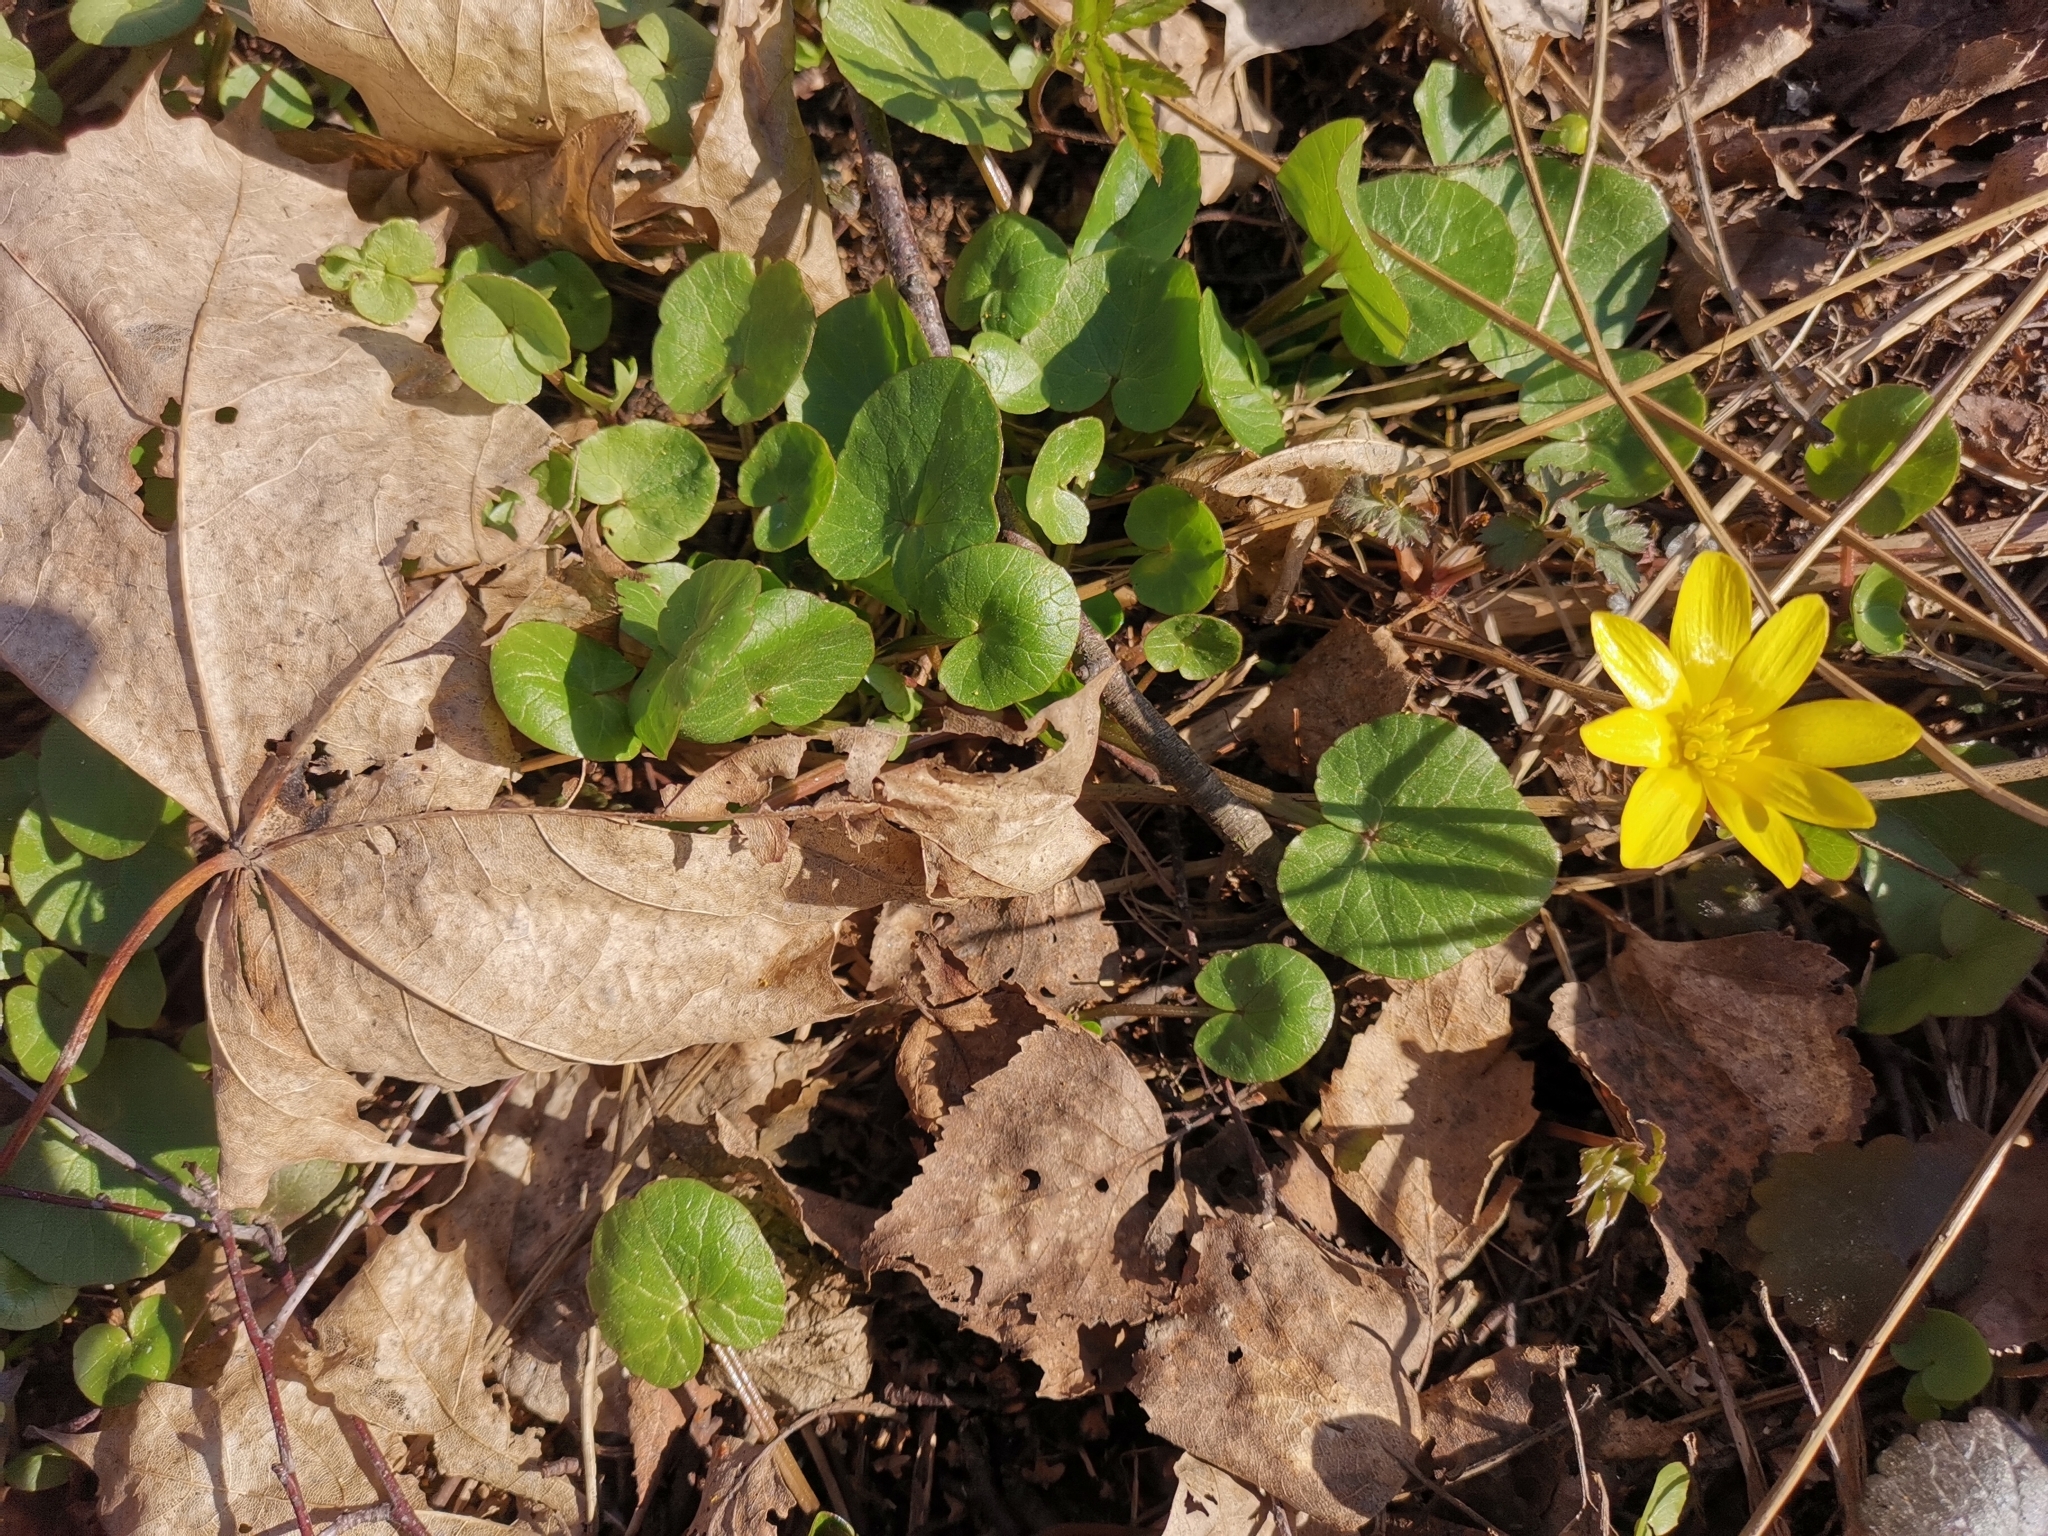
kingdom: Plantae
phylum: Tracheophyta
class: Magnoliopsida
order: Ranunculales
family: Ranunculaceae
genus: Ficaria
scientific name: Ficaria verna
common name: Lesser celandine
